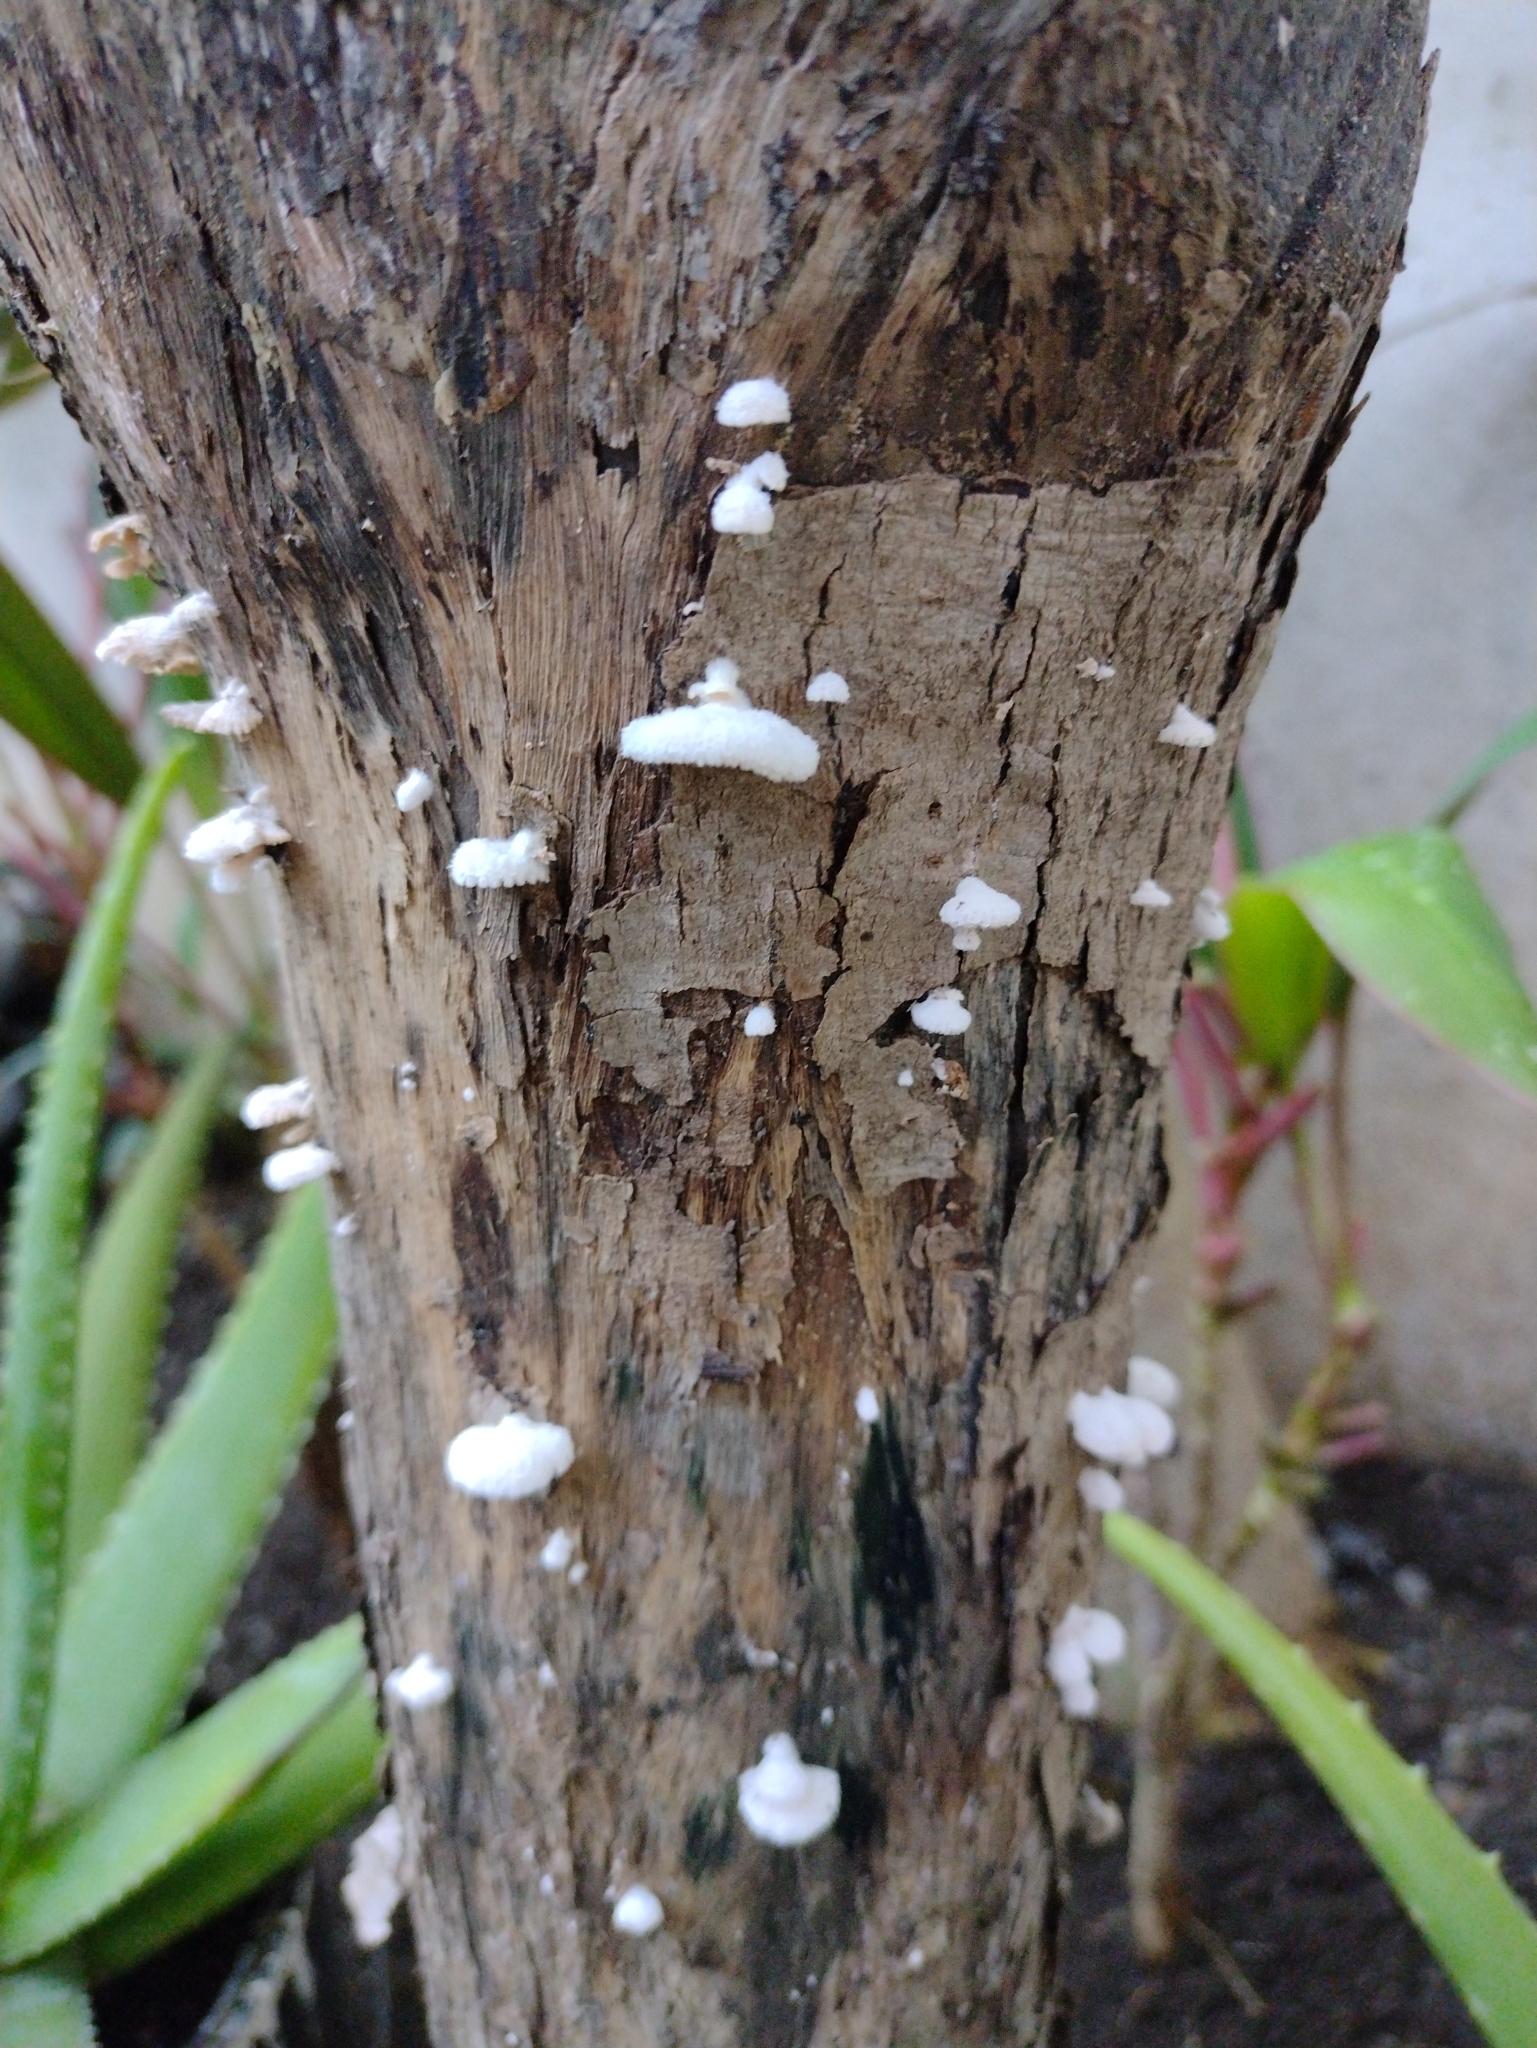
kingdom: Fungi
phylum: Basidiomycota
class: Agaricomycetes
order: Agaricales
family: Schizophyllaceae
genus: Schizophyllum
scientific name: Schizophyllum commune
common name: Common porecrust
